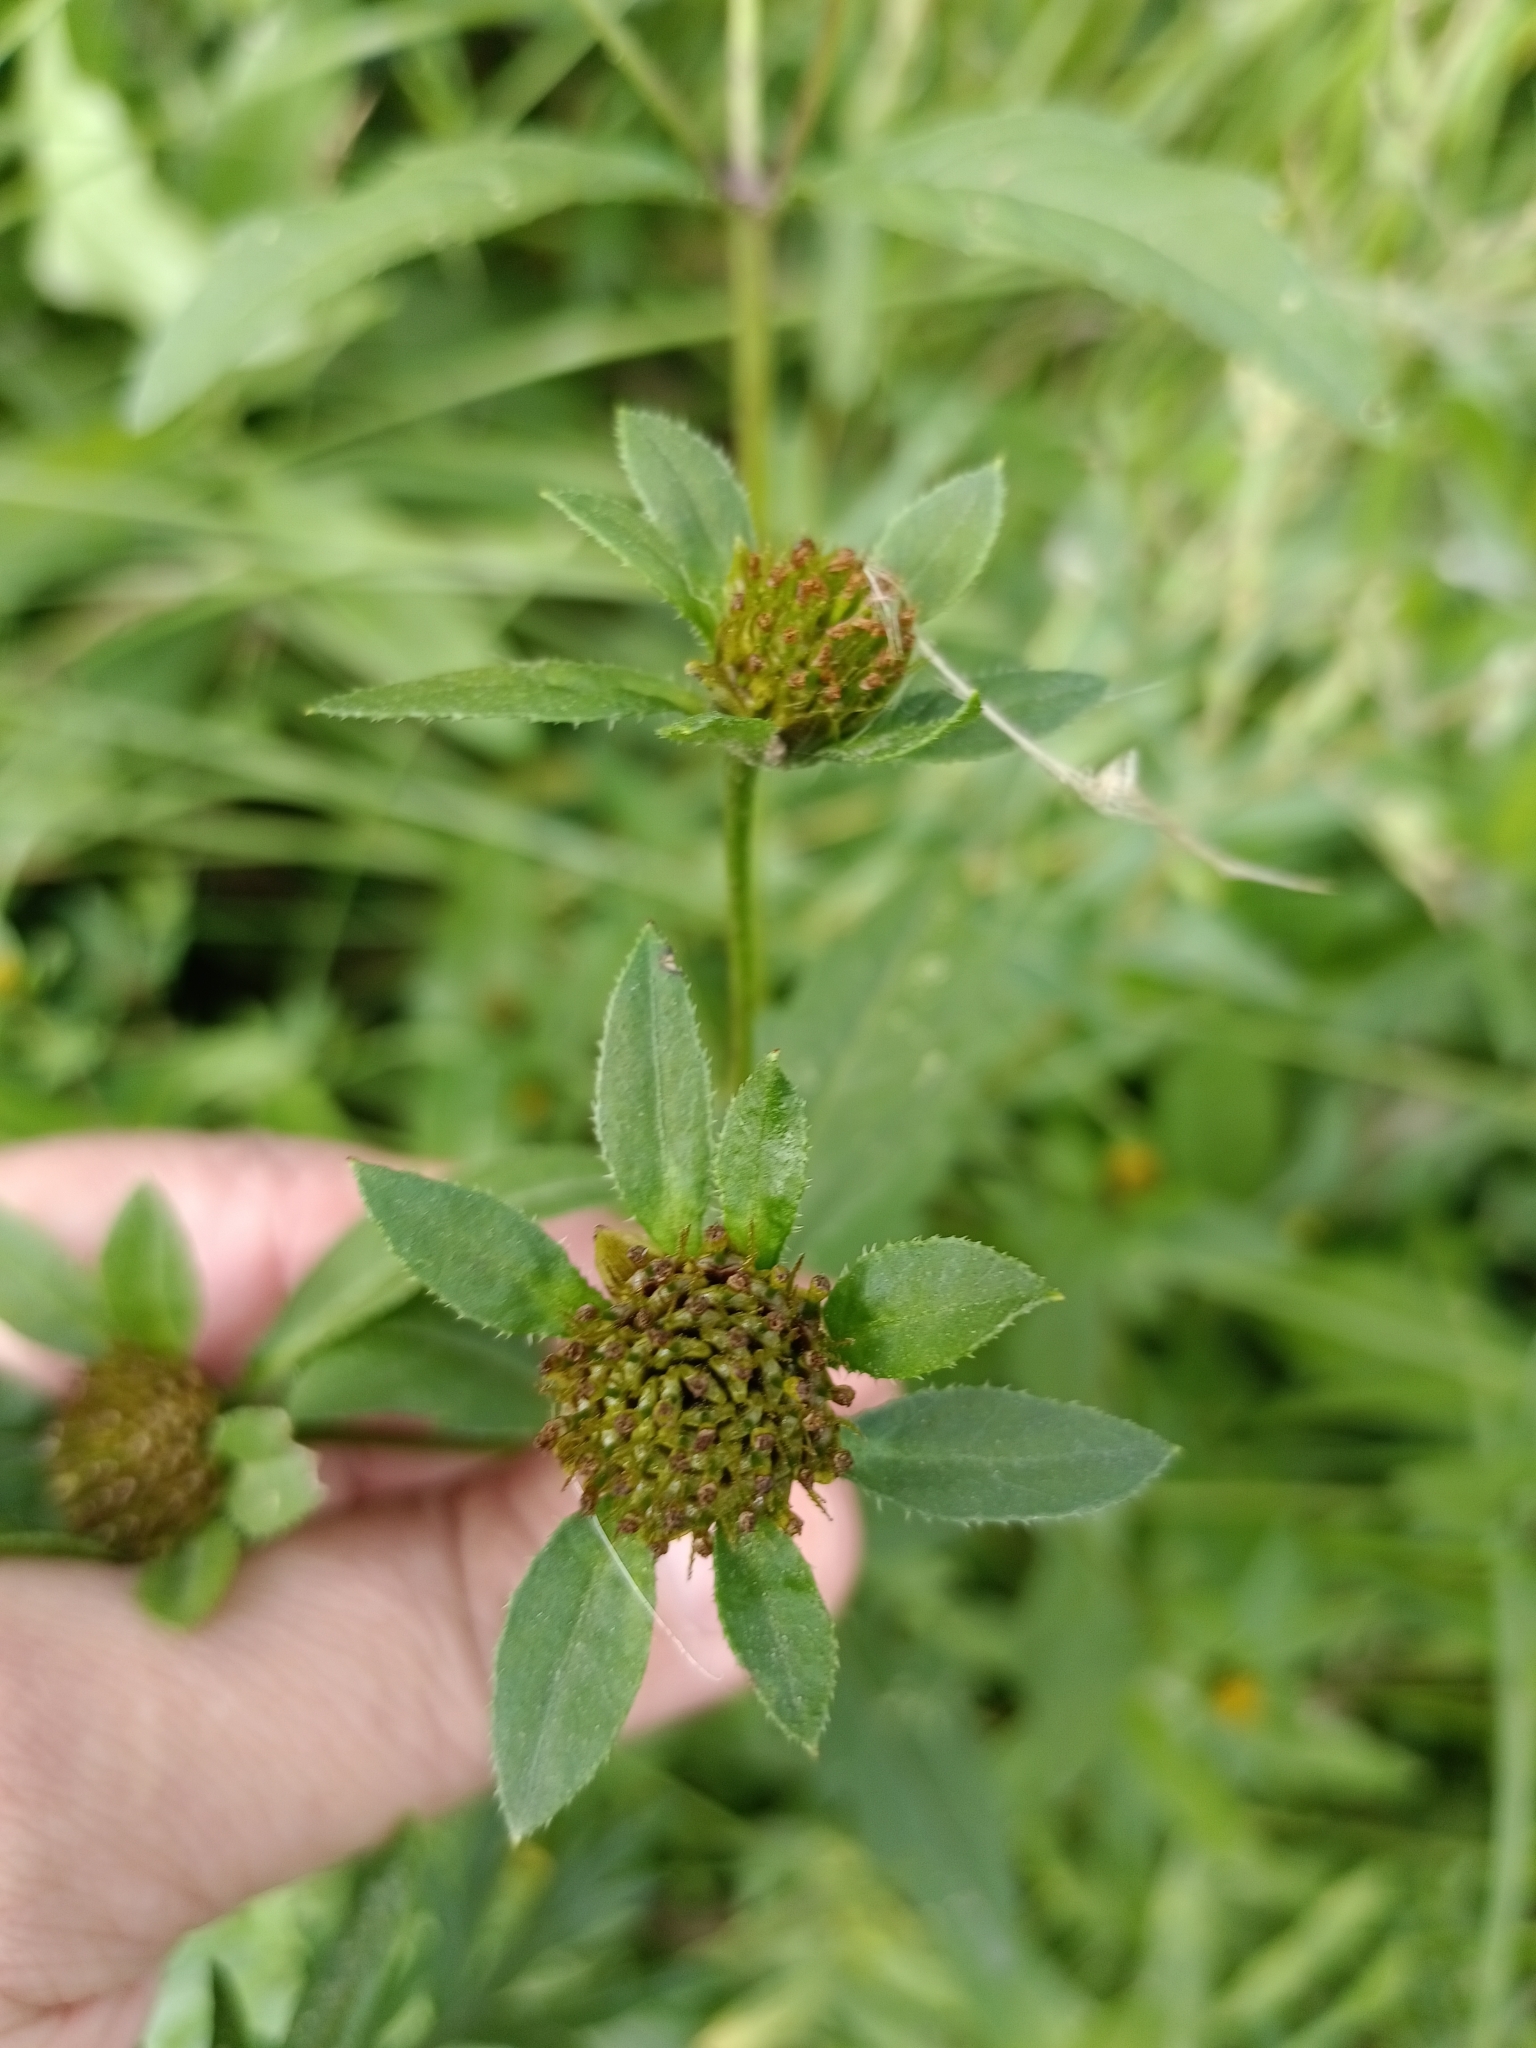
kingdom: Plantae
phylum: Tracheophyta
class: Magnoliopsida
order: Asterales
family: Asteraceae
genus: Bidens
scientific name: Bidens tripartita
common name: Trifid bur-marigold
